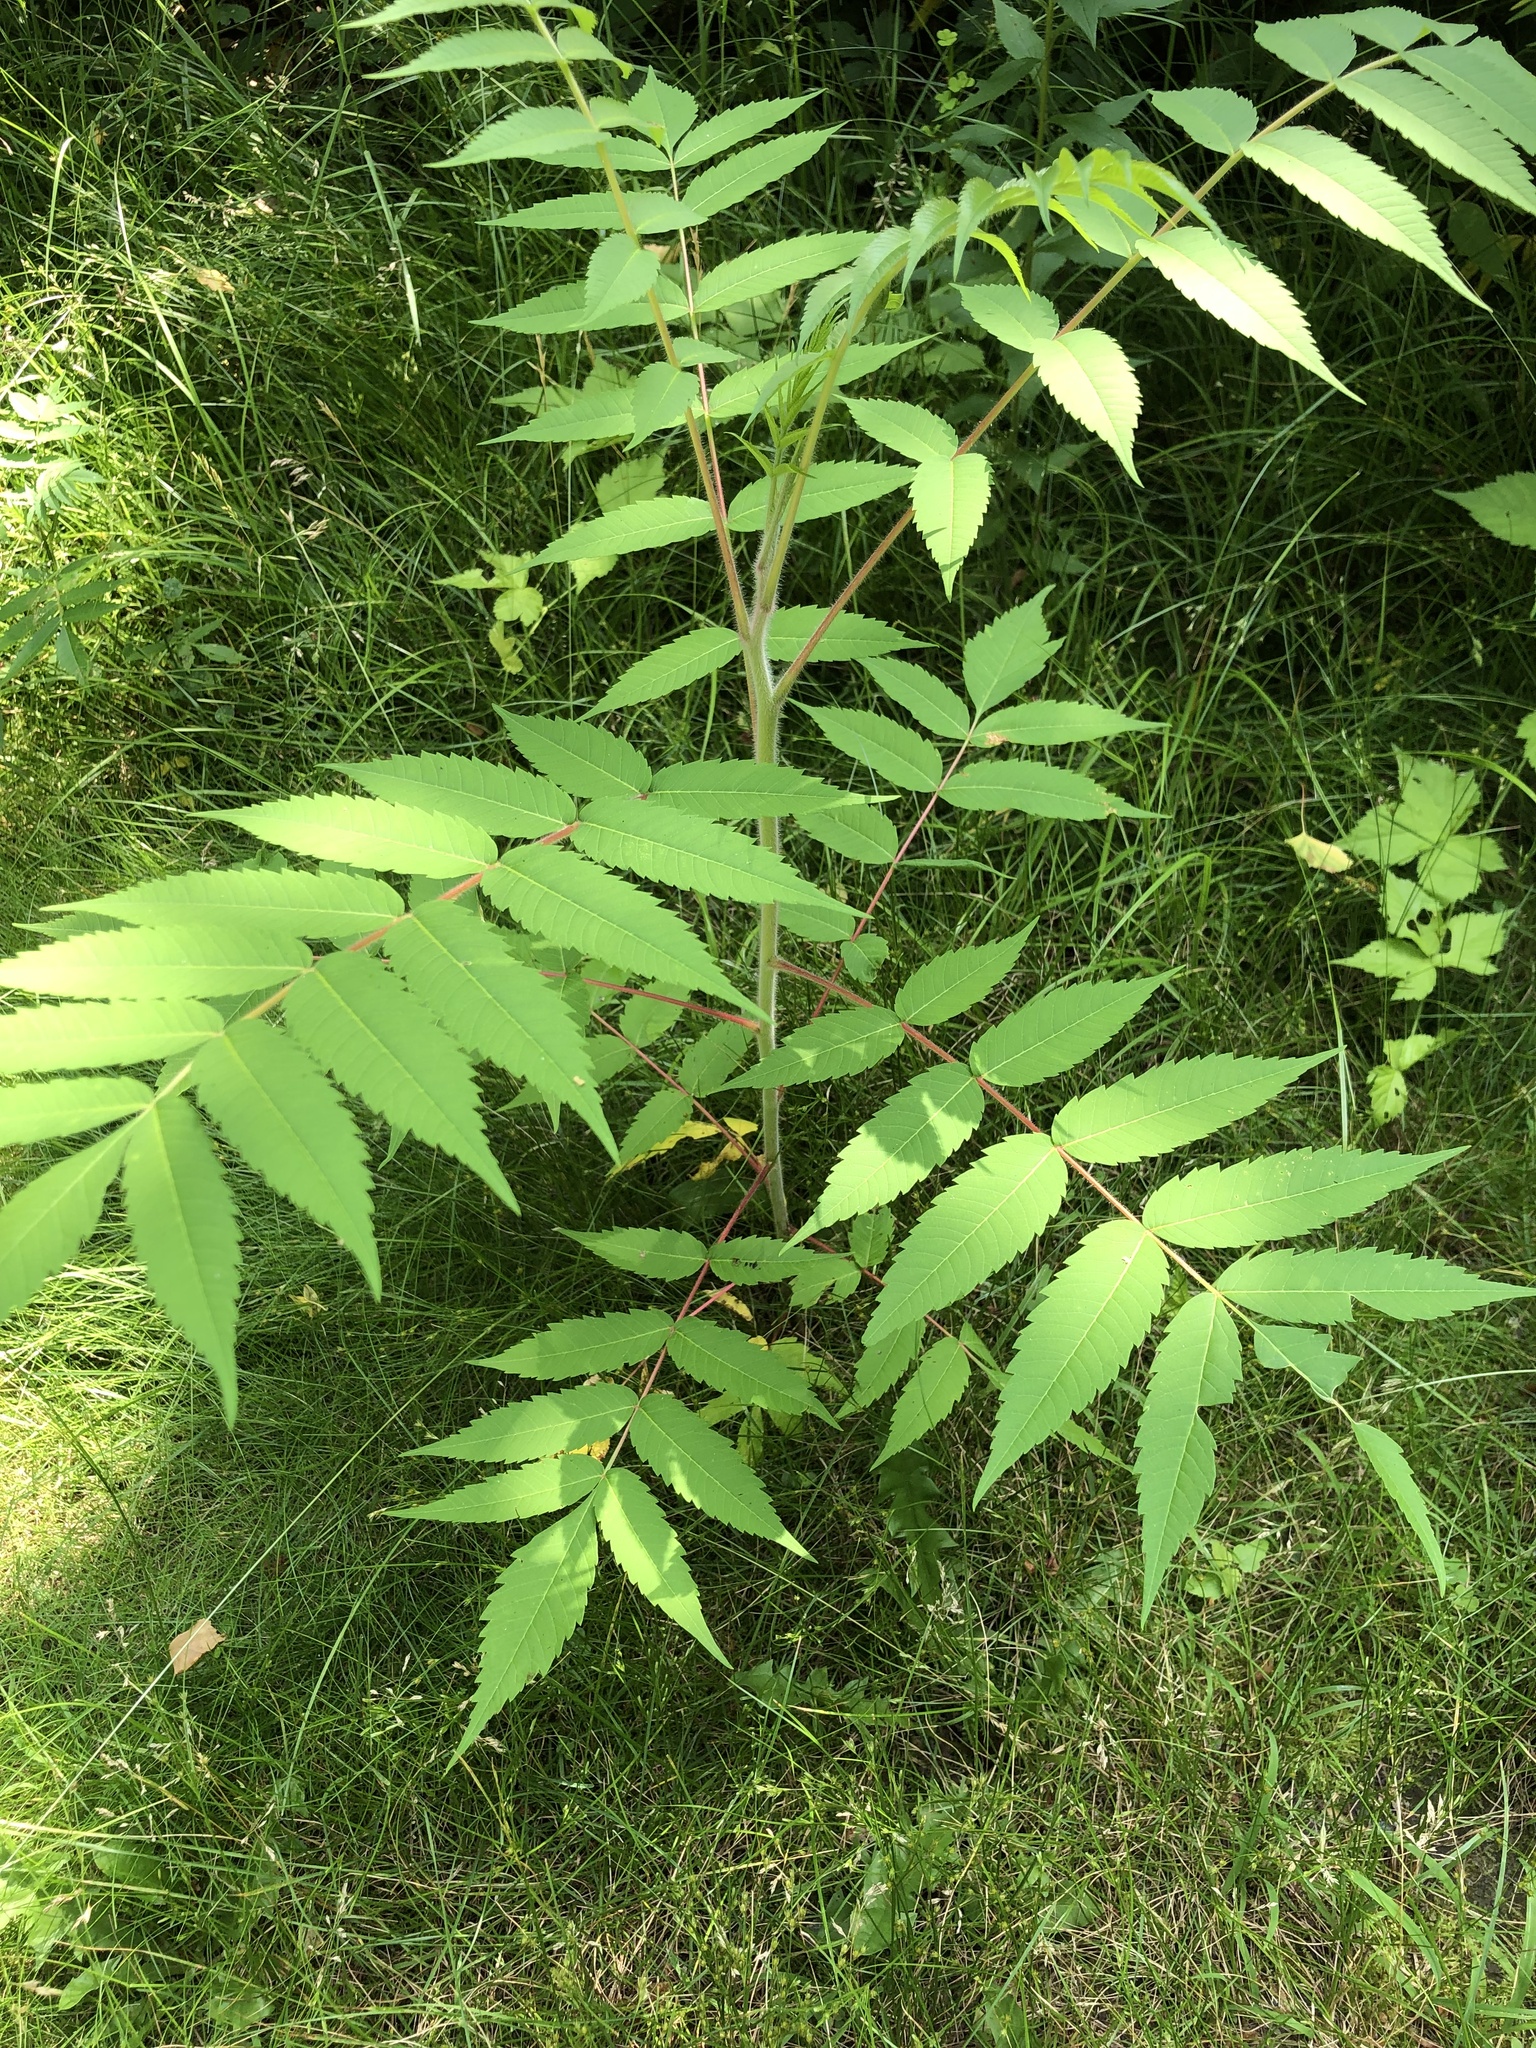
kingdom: Plantae
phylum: Tracheophyta
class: Magnoliopsida
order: Sapindales
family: Anacardiaceae
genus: Rhus
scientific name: Rhus typhina
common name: Staghorn sumac
